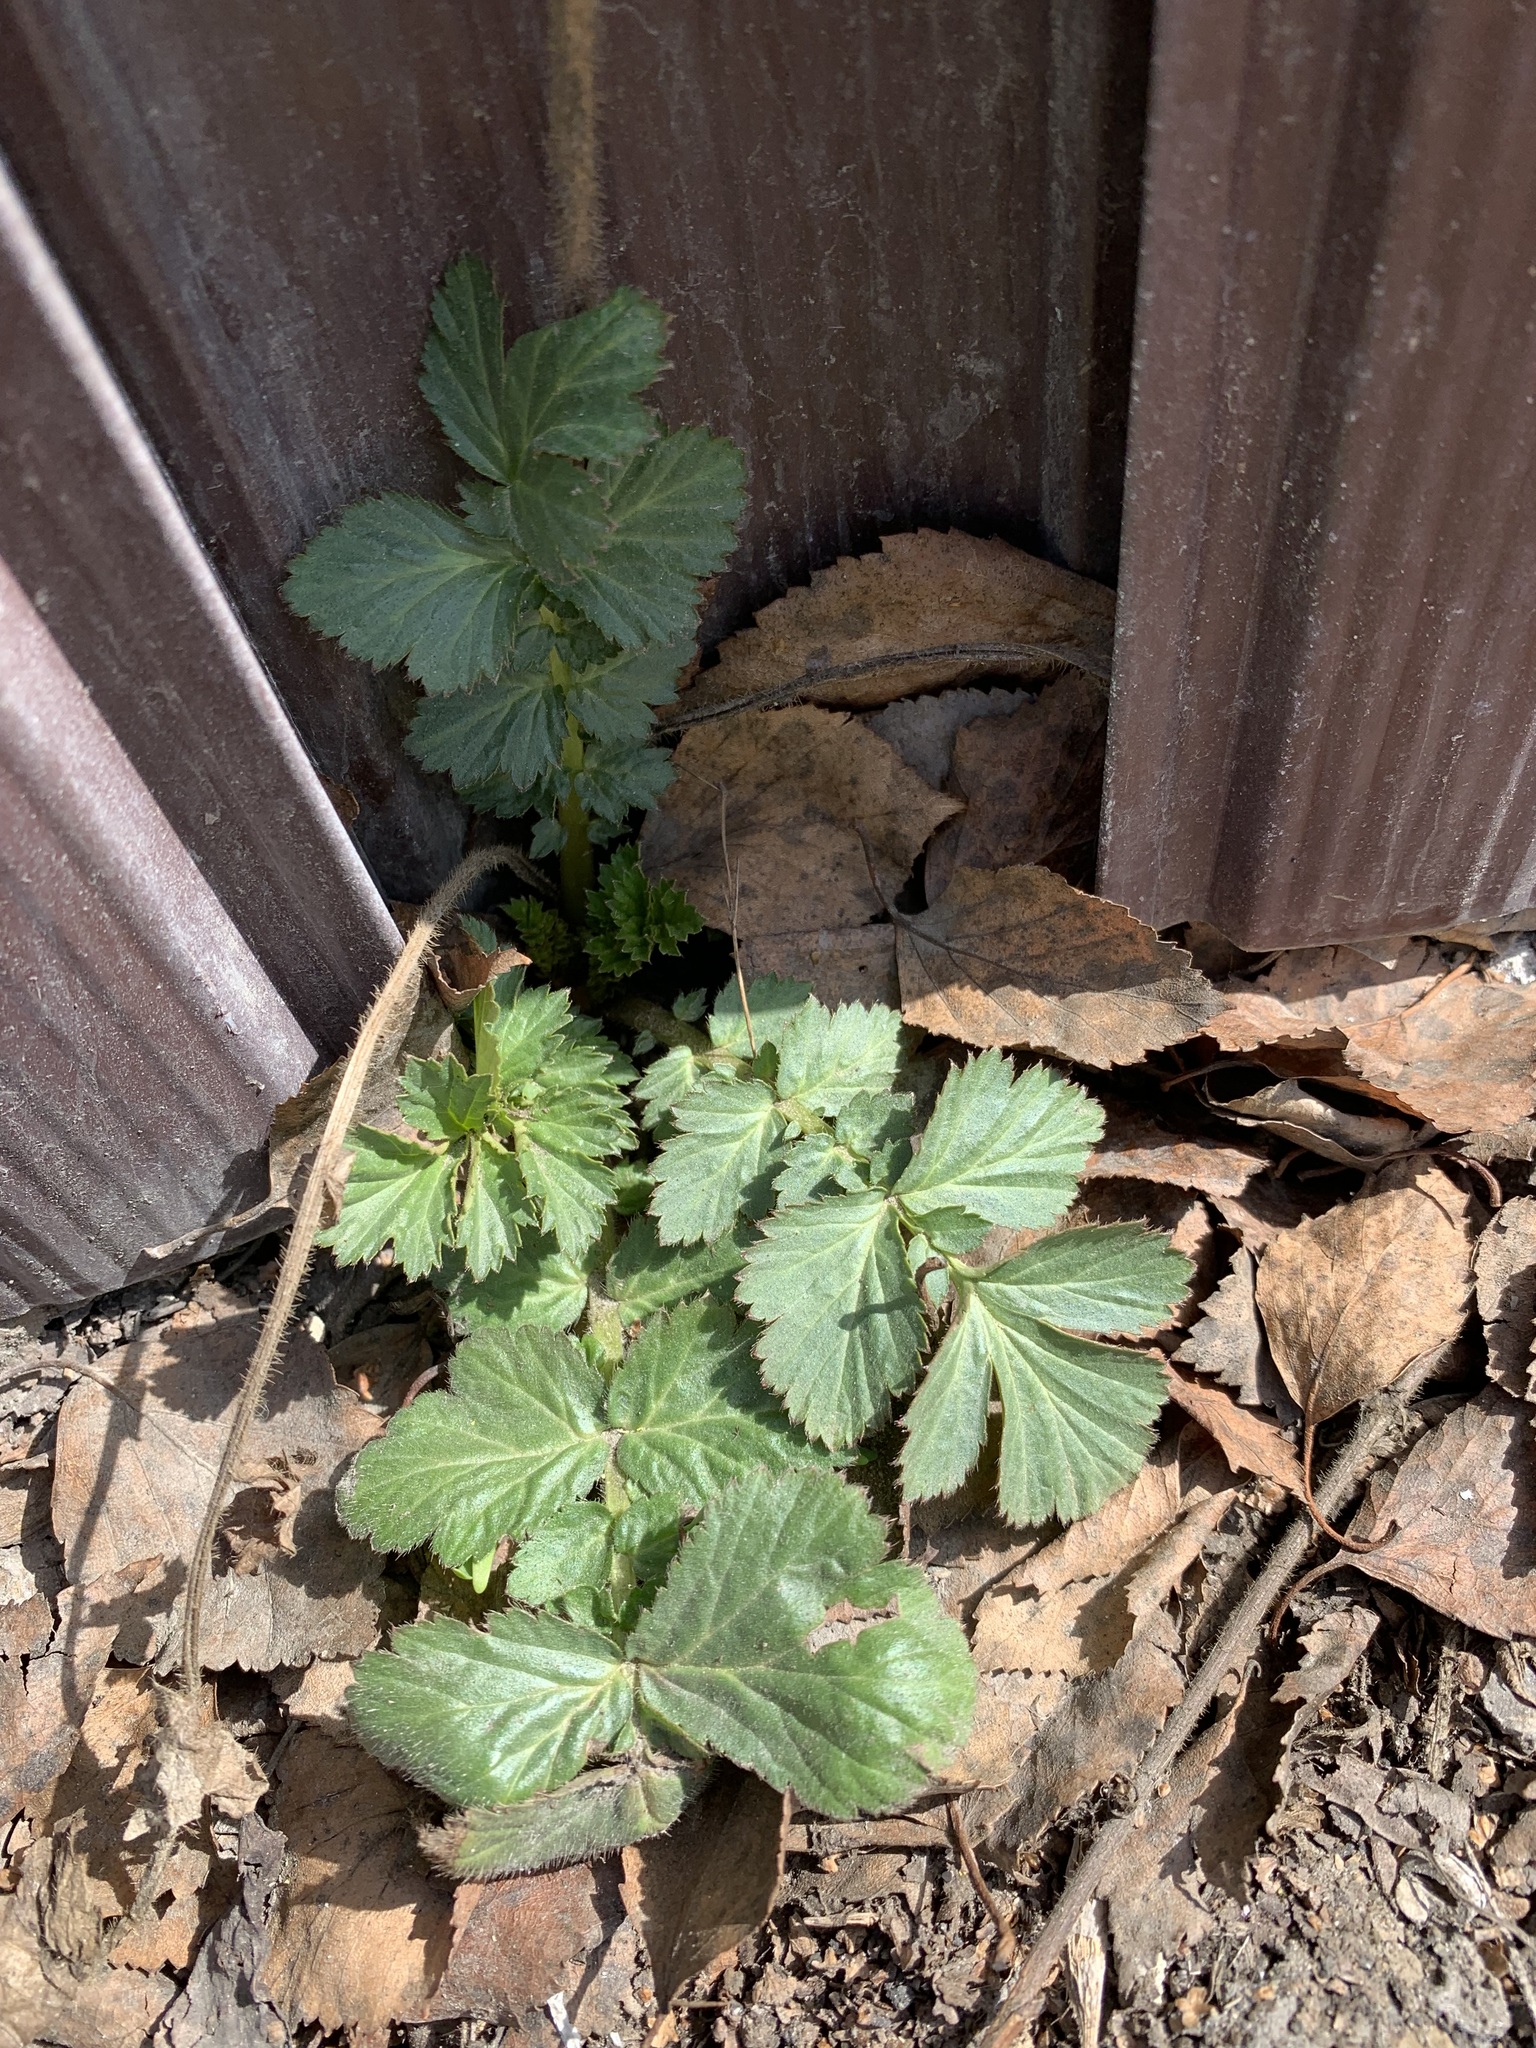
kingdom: Plantae
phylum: Tracheophyta
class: Magnoliopsida
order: Rosales
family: Rosaceae
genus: Geum
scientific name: Geum aleppicum
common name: Yellow avens
